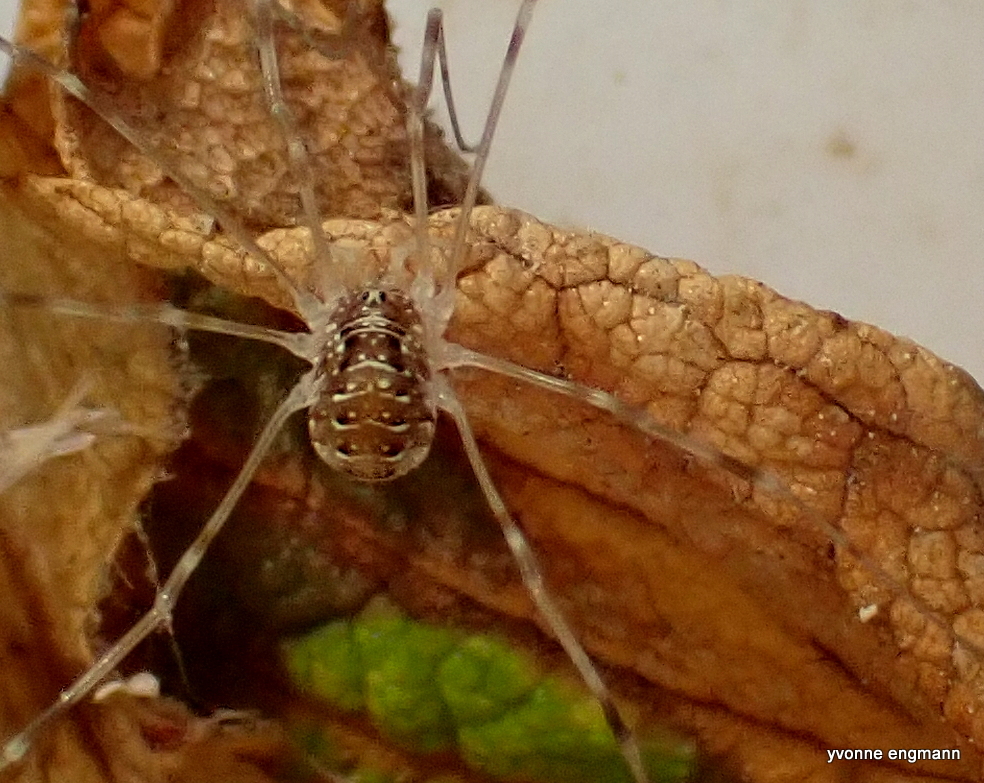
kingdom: Animalia
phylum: Arthropoda
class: Arachnida
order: Opiliones
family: Phalangiidae
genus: Opilio
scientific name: Opilio canestrinii
